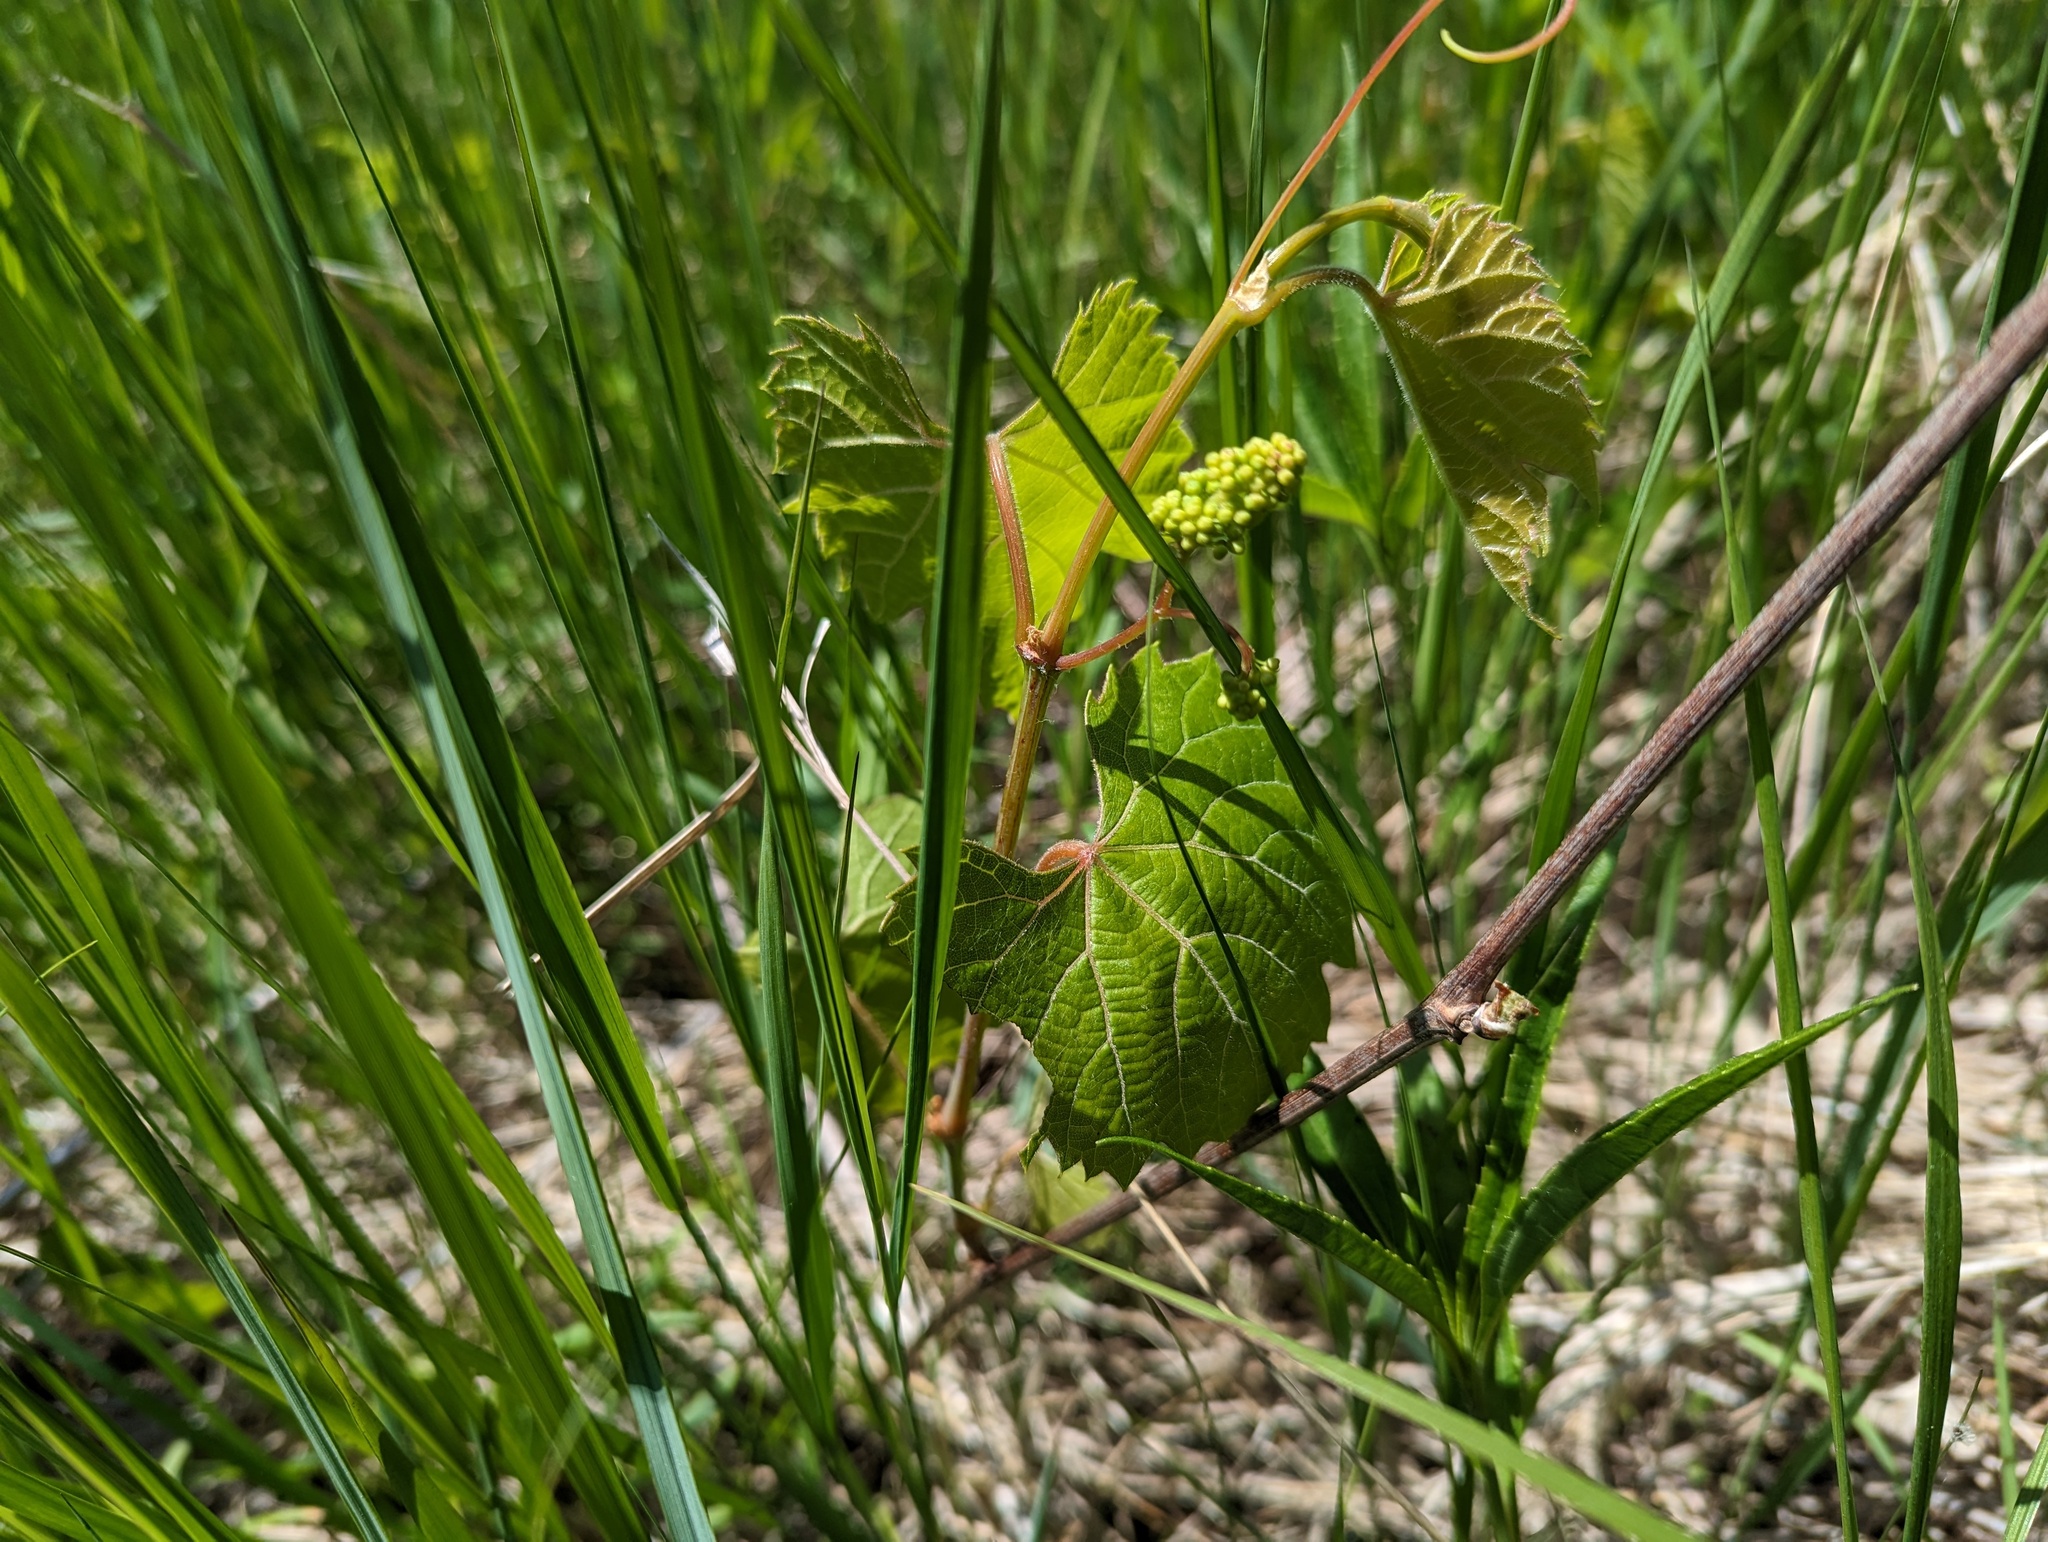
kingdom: Plantae
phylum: Tracheophyta
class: Magnoliopsida
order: Vitales
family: Vitaceae
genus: Vitis
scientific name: Vitis riparia
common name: Frost grape
